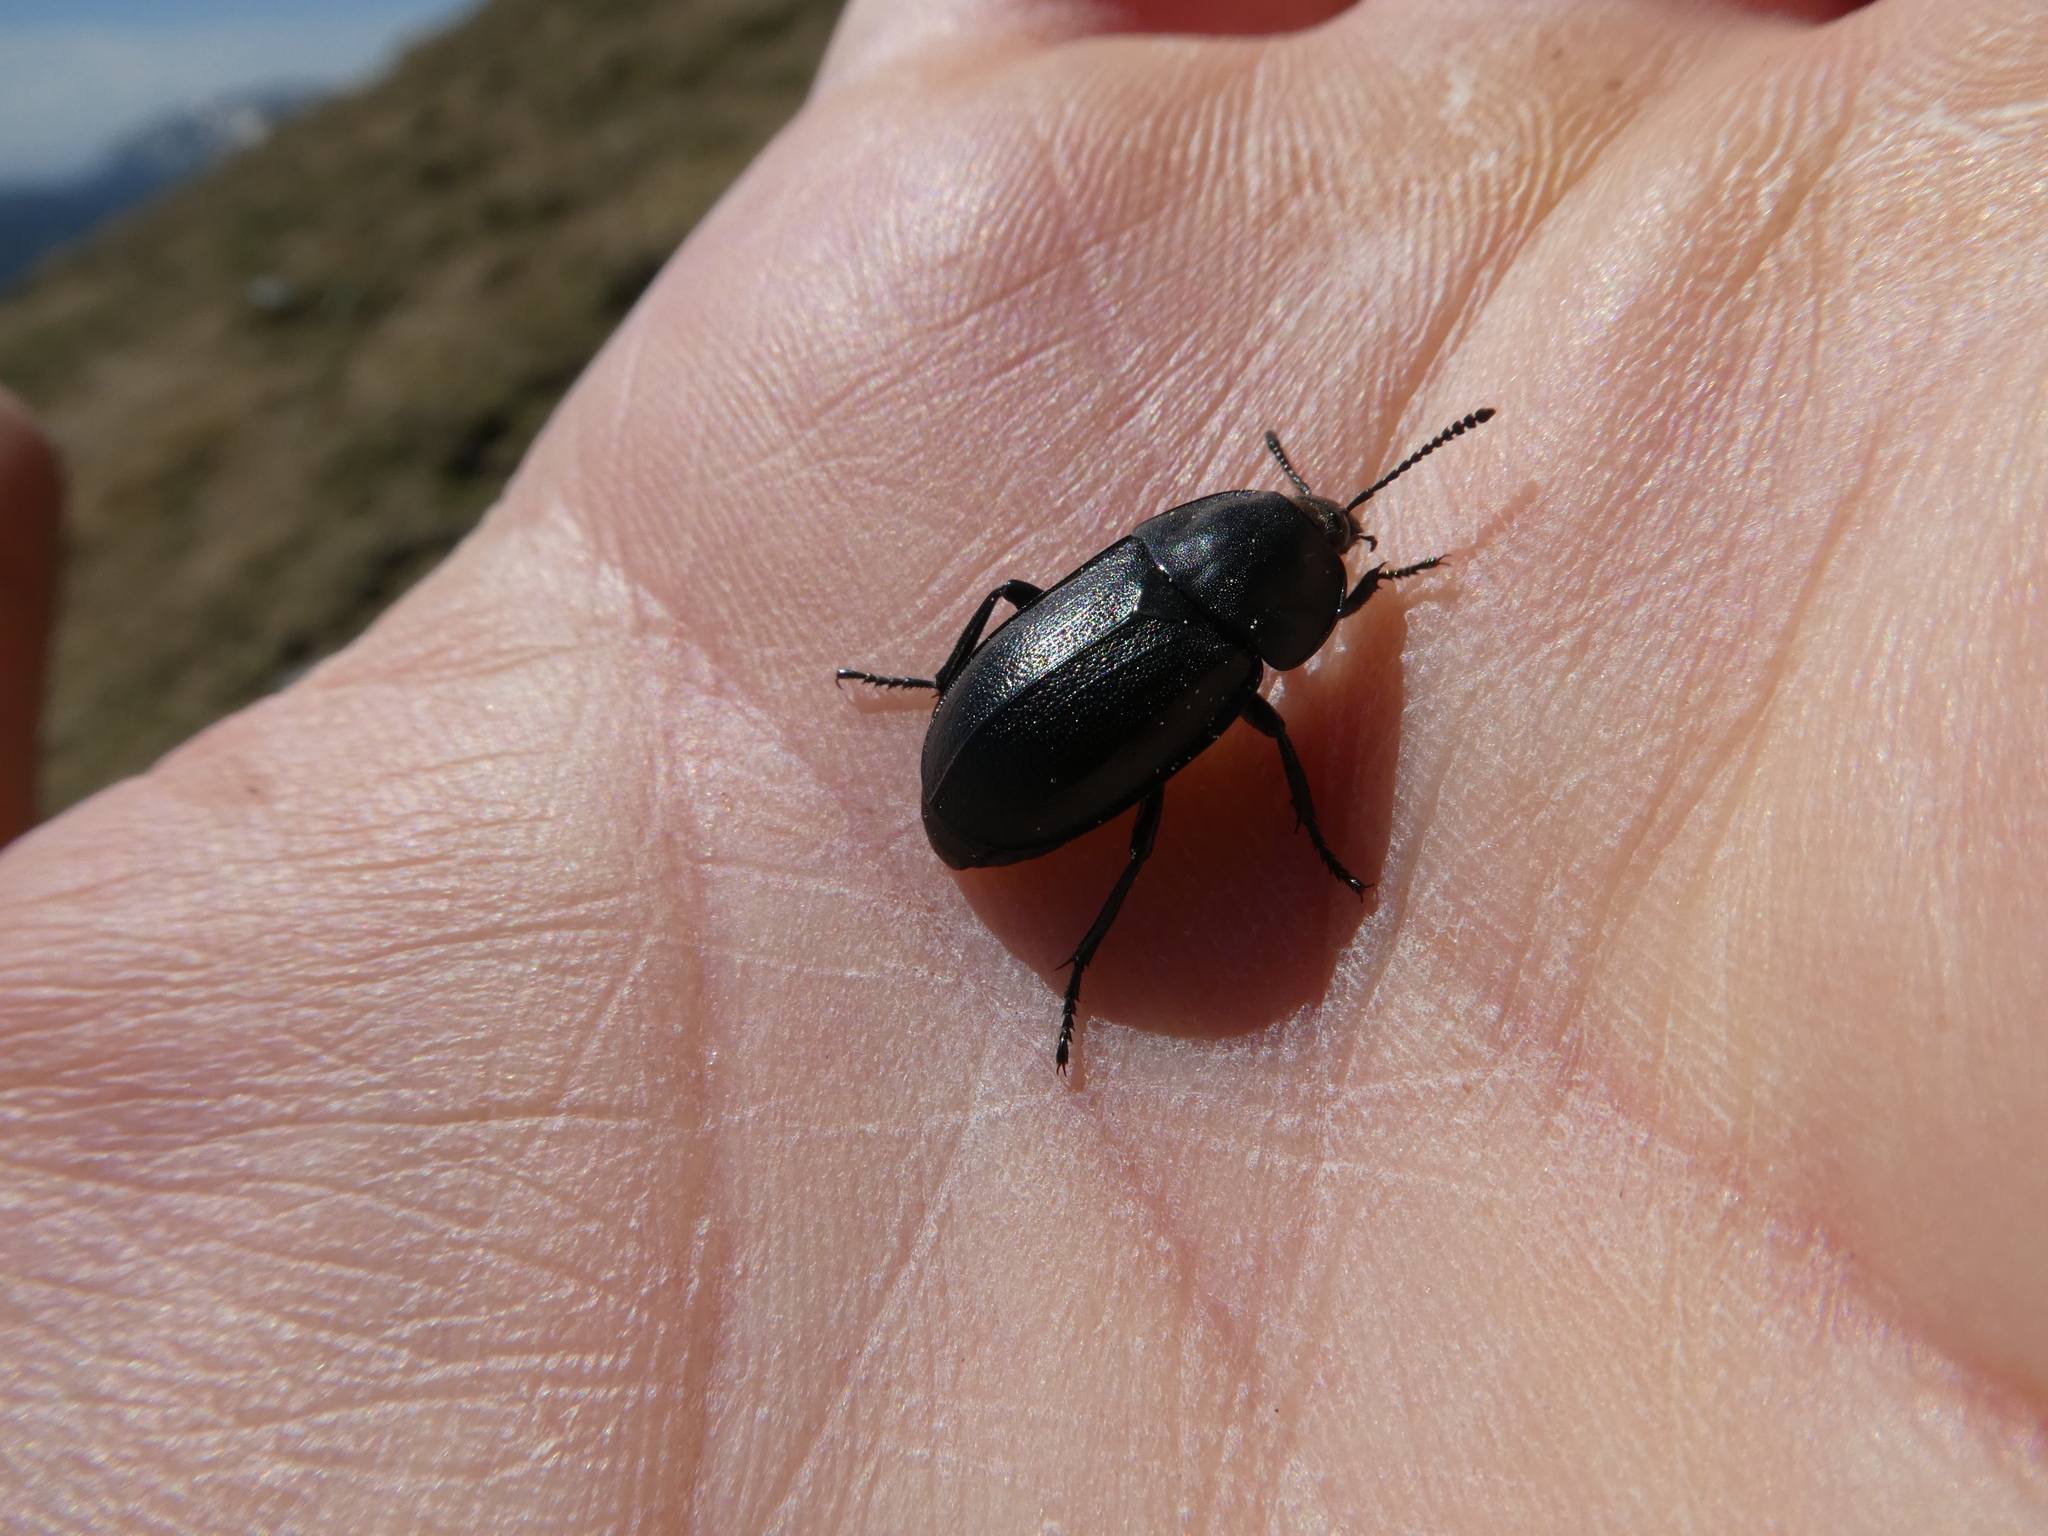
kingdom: Animalia
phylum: Arthropoda
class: Insecta
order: Coleoptera
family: Staphylinidae
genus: Silpha
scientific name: Silpha laevigata
